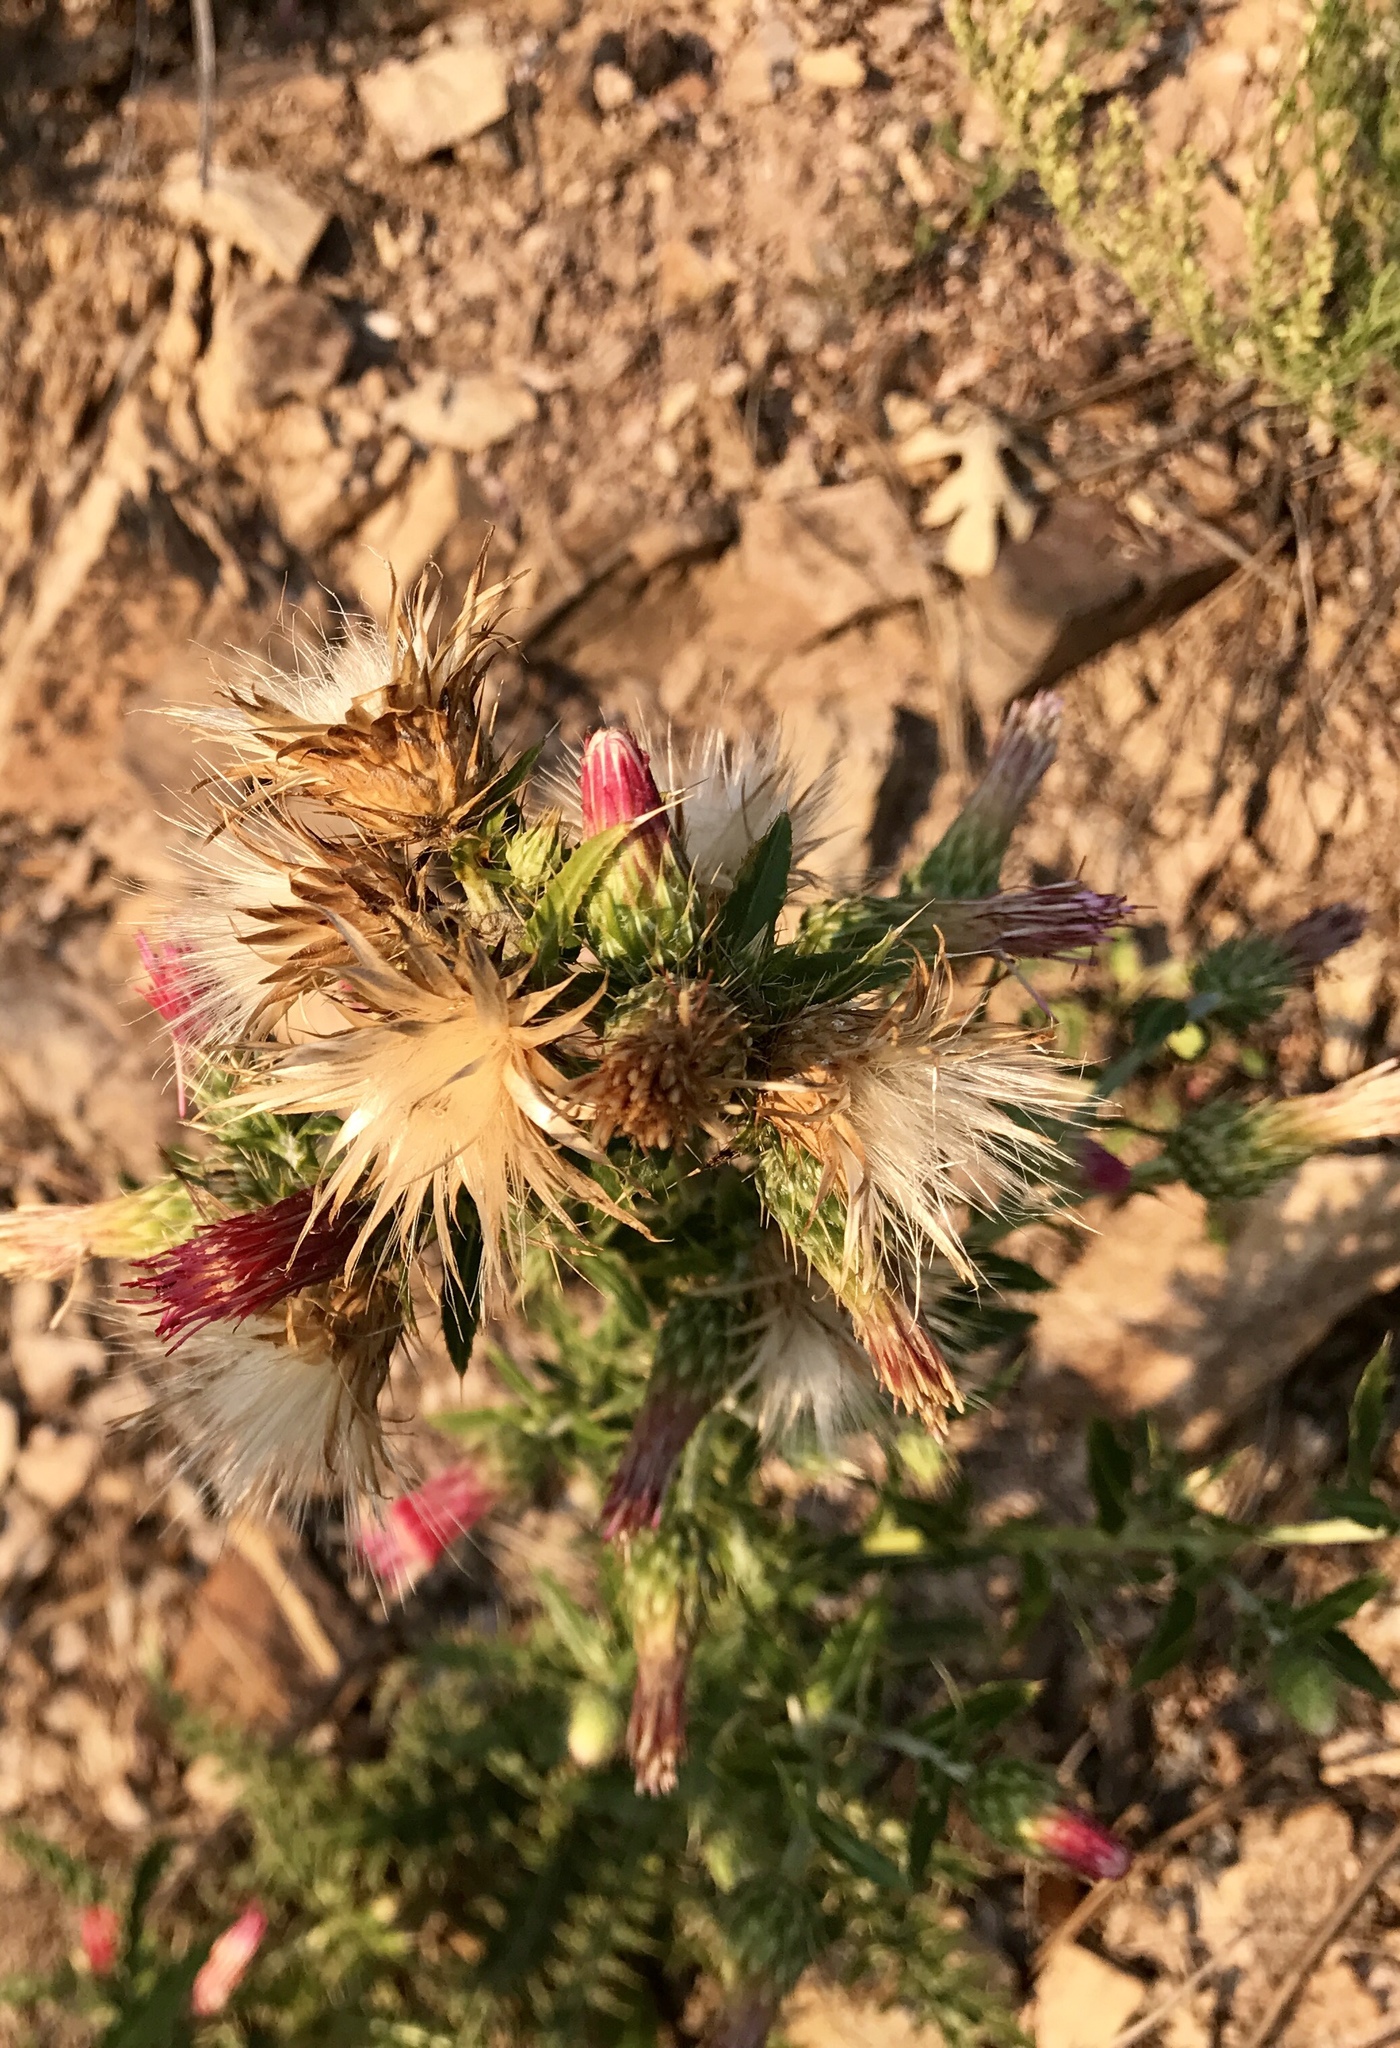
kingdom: Plantae
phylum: Tracheophyta
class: Magnoliopsida
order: Asterales
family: Asteraceae
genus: Cirsium
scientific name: Cirsium arizonicum
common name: Arizona thistle
